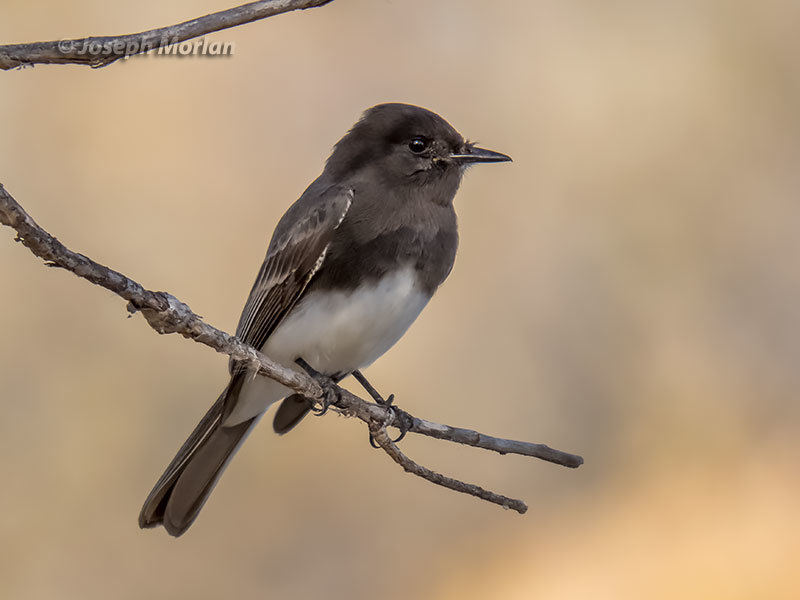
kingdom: Animalia
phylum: Chordata
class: Aves
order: Passeriformes
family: Tyrannidae
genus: Sayornis
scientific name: Sayornis nigricans
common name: Black phoebe
